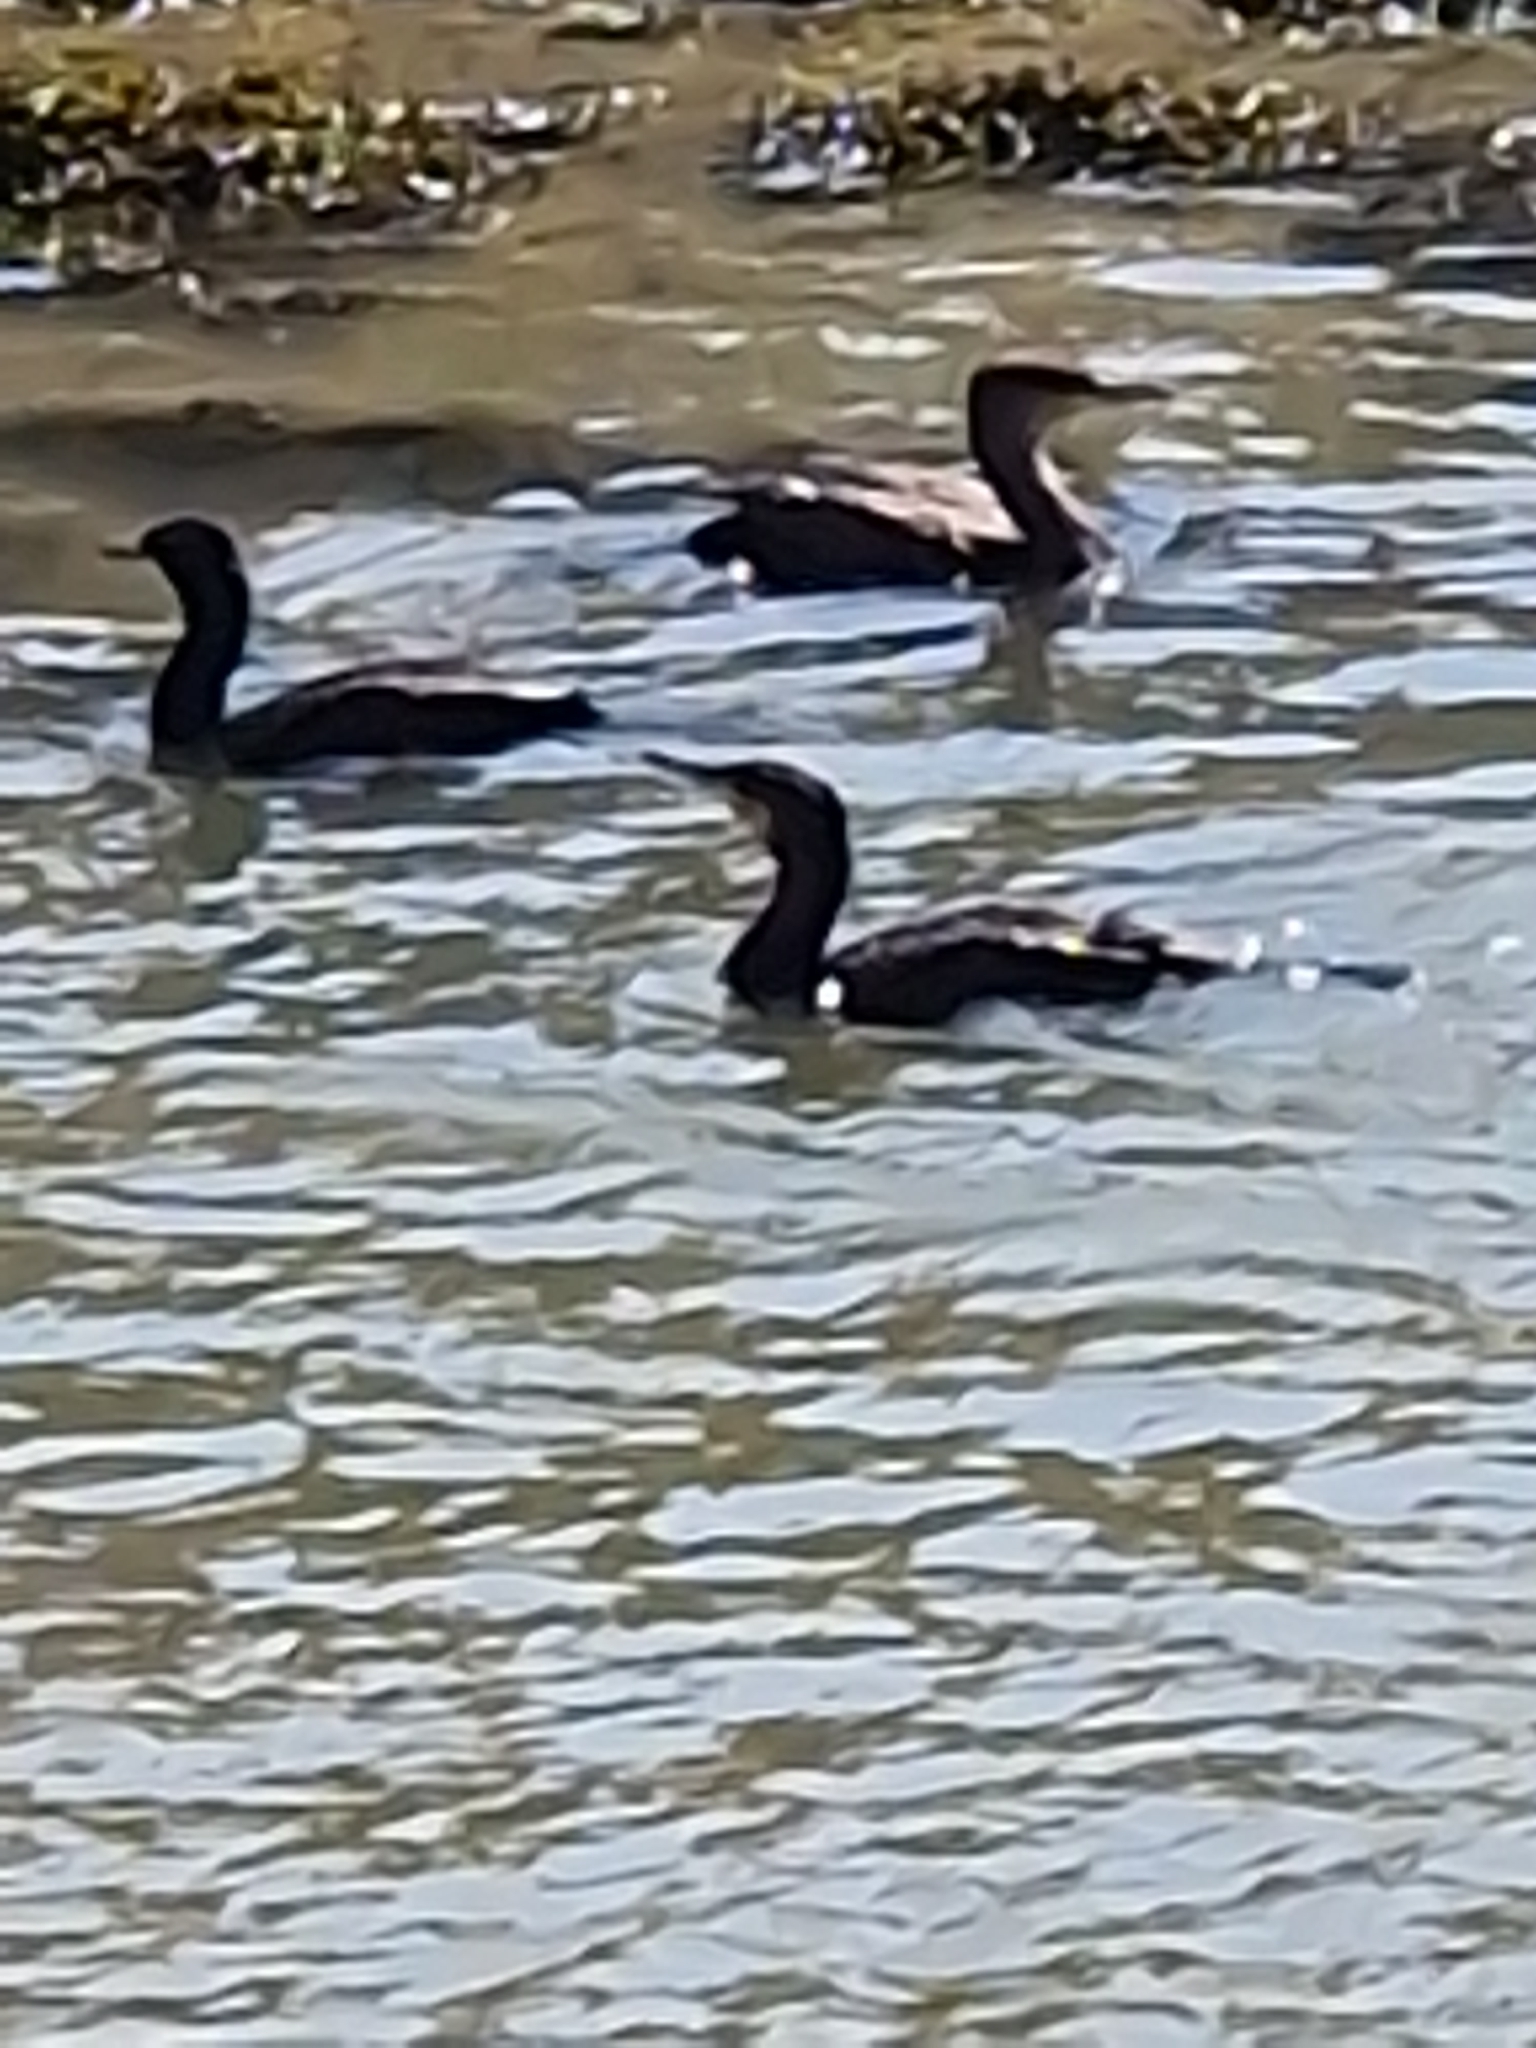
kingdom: Animalia
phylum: Chordata
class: Aves
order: Suliformes
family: Phalacrocoracidae
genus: Phalacrocorax
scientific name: Phalacrocorax carbo
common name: Great cormorant
